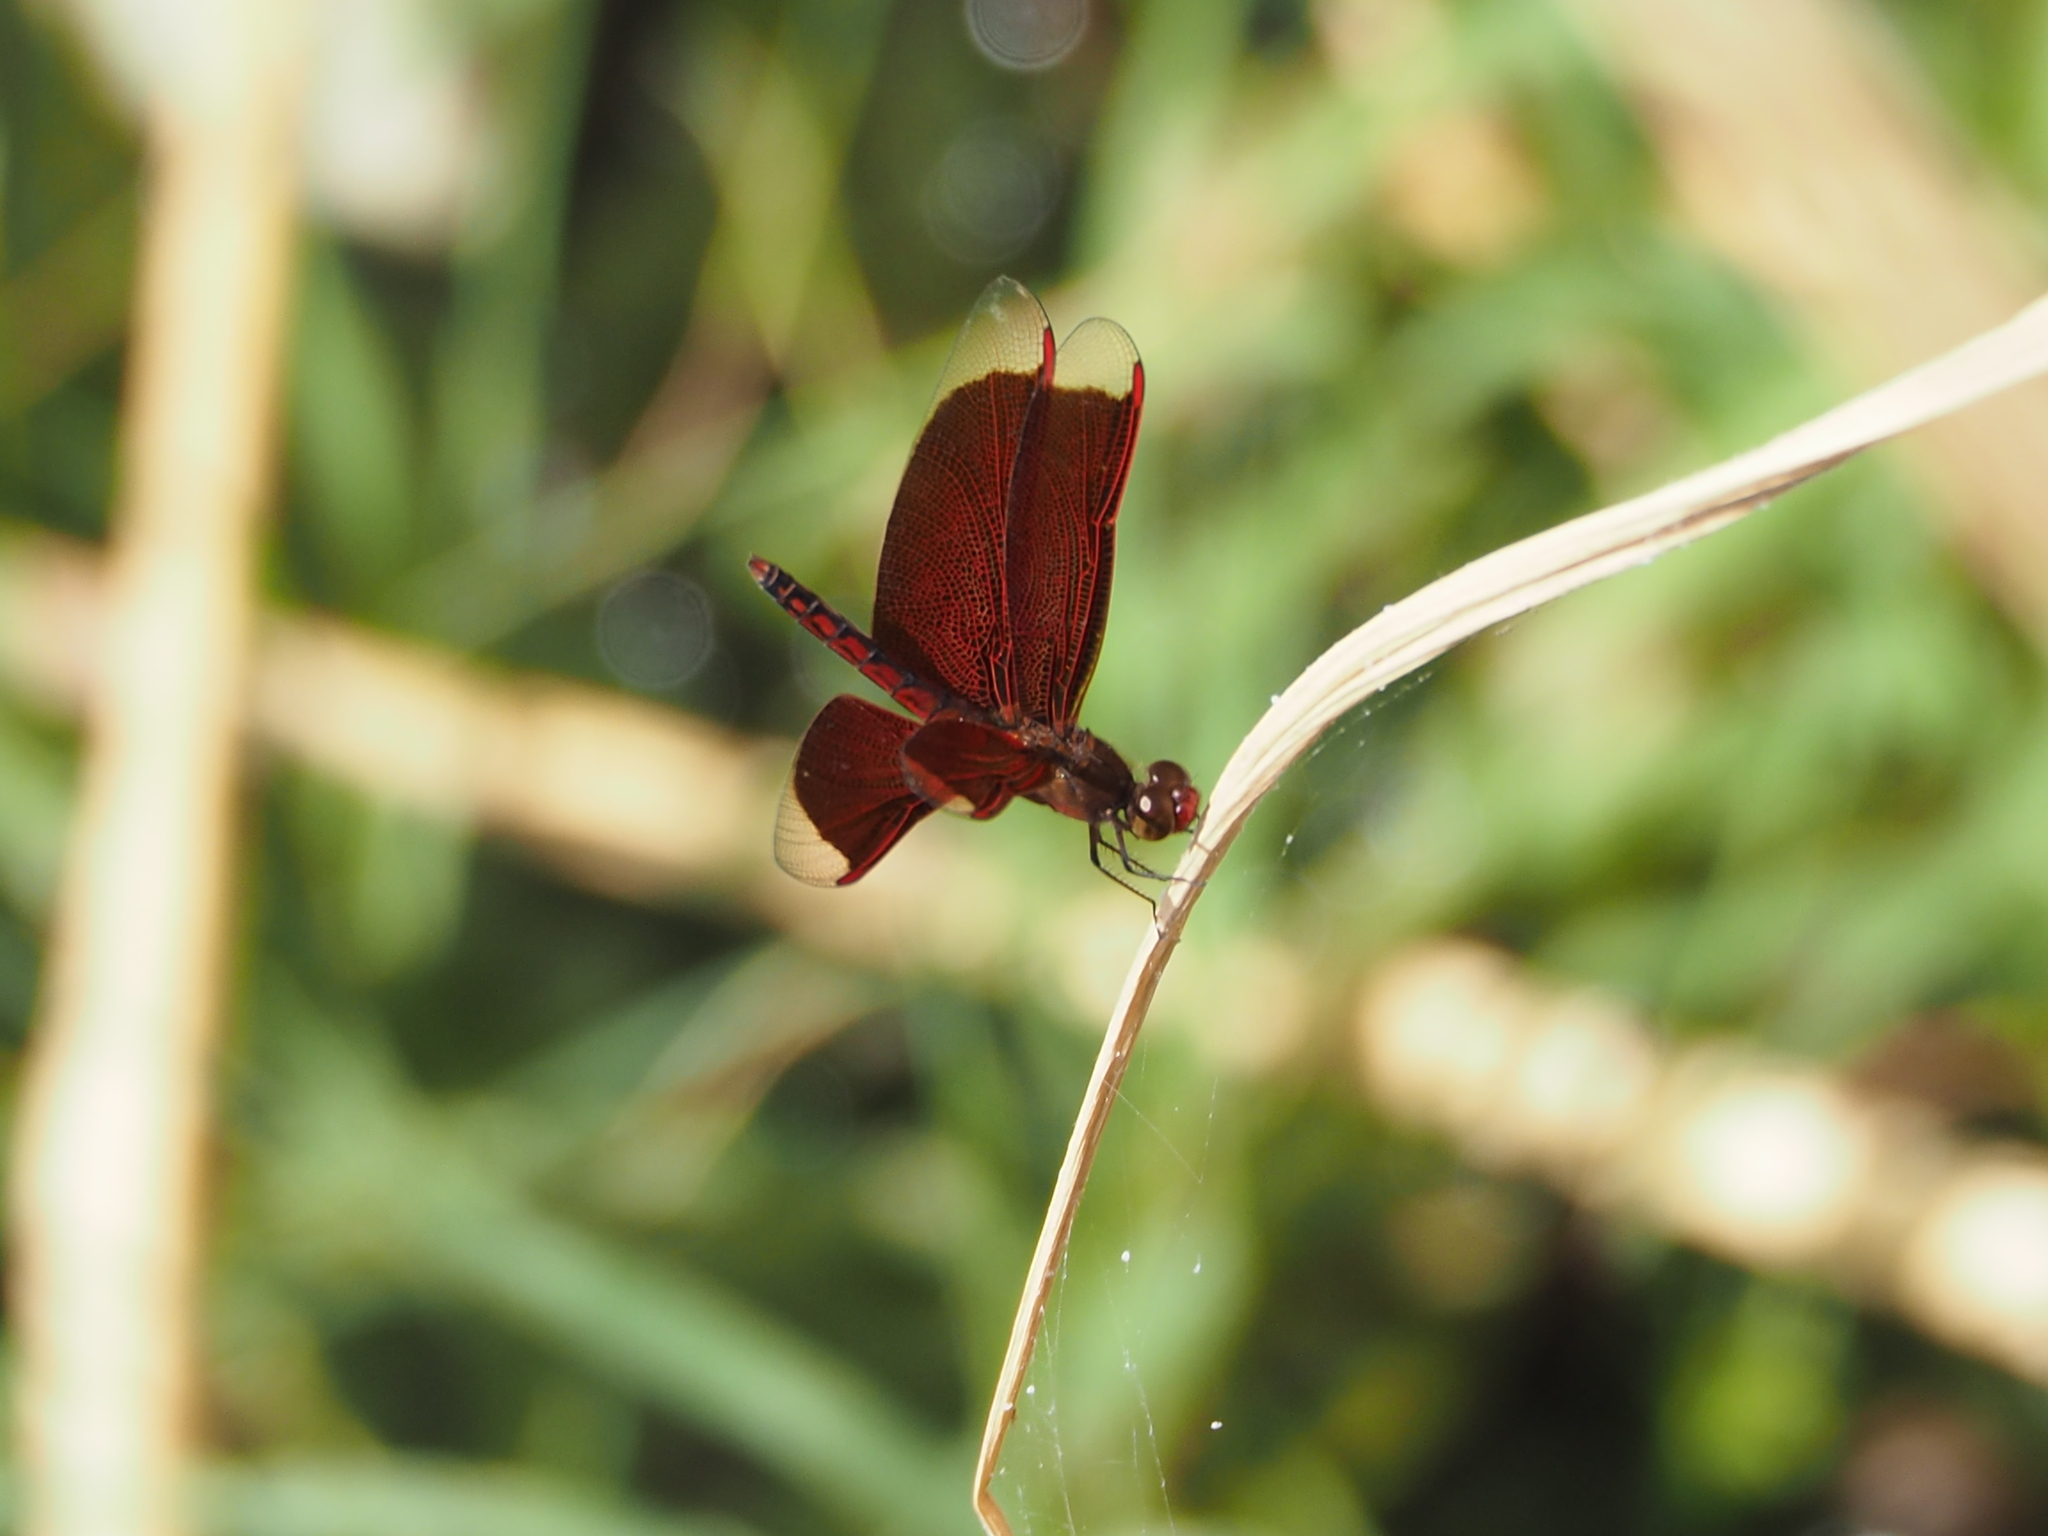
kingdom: Animalia
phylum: Arthropoda
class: Insecta
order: Odonata
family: Libellulidae
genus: Neurothemis
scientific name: Neurothemis taiwanensis
